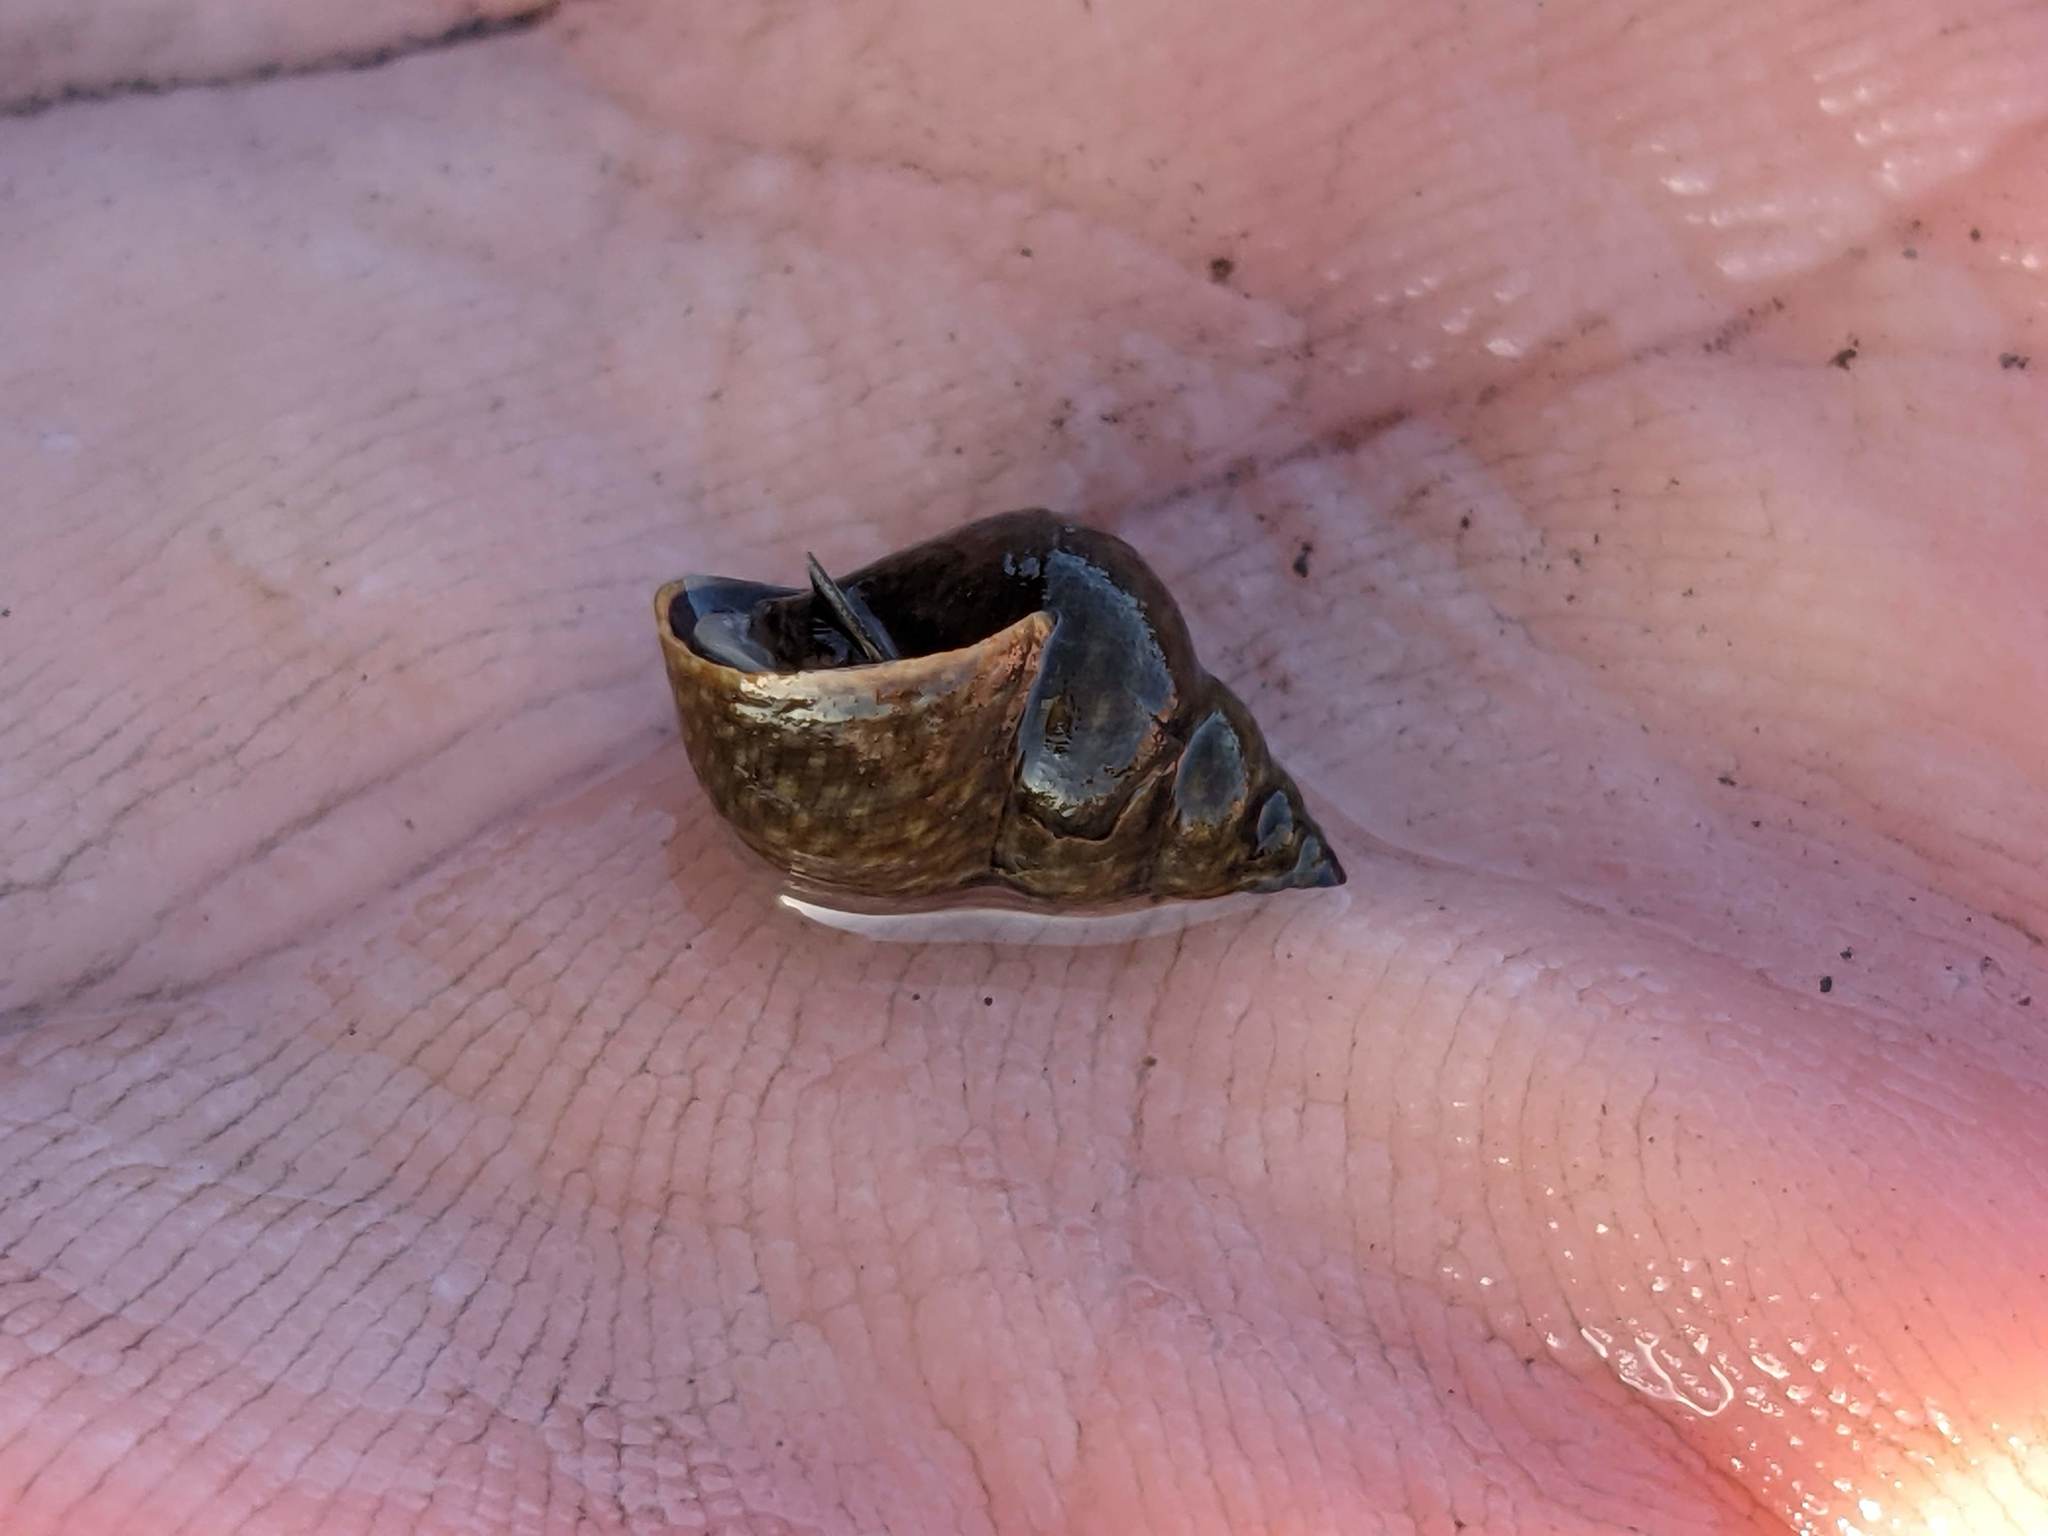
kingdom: Animalia
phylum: Mollusca
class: Gastropoda
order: Littorinimorpha
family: Littorinidae
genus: Littorina
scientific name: Littorina scutulata
